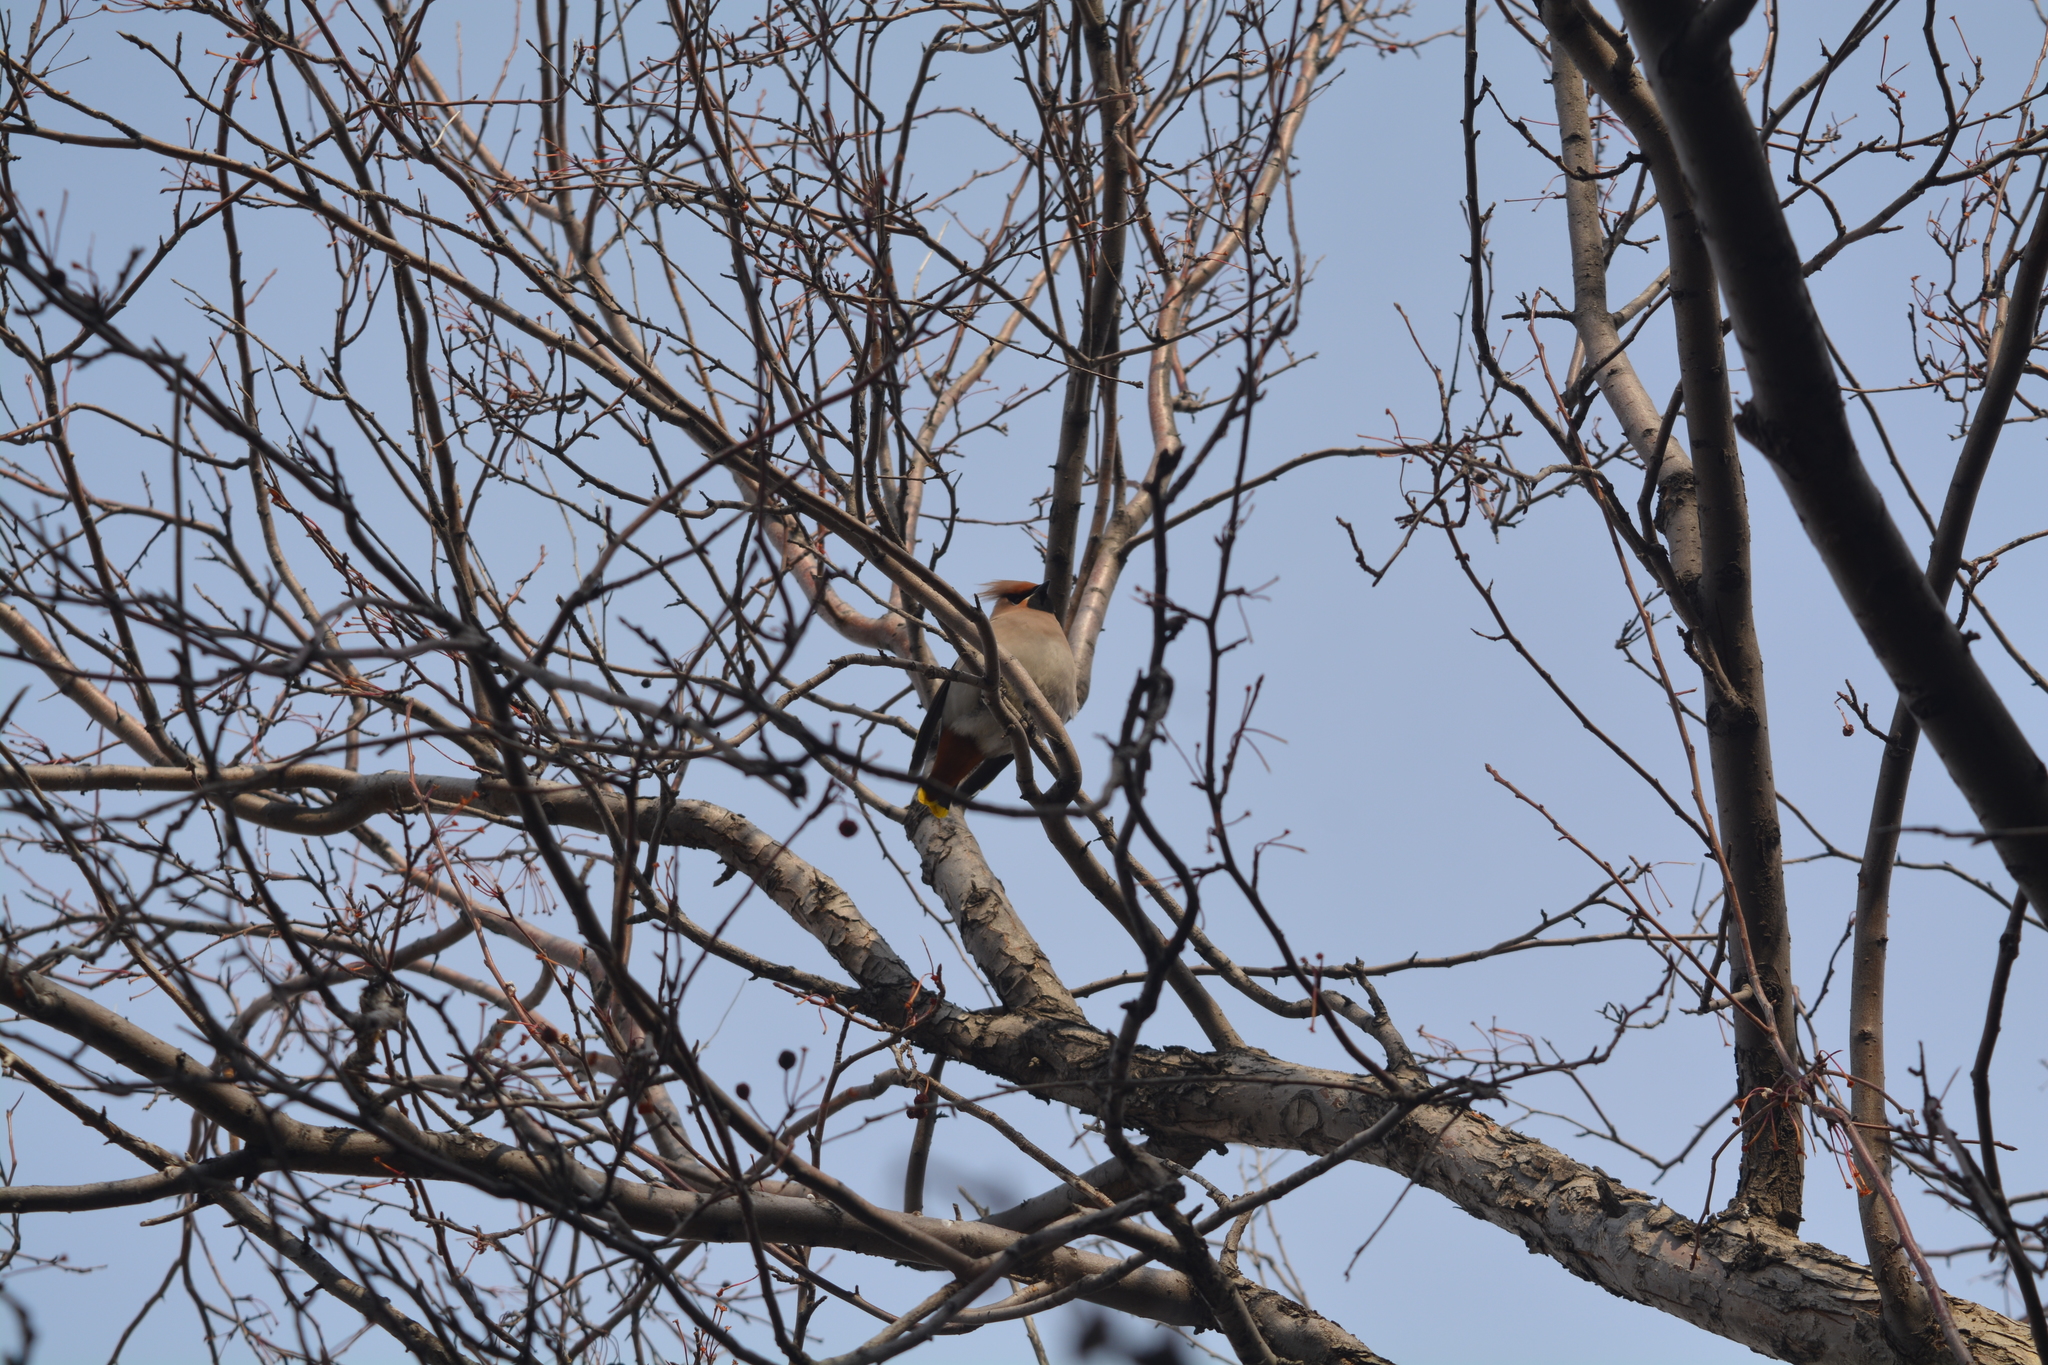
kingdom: Animalia
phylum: Chordata
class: Aves
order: Passeriformes
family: Bombycillidae
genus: Bombycilla
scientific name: Bombycilla garrulus
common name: Bohemian waxwing
